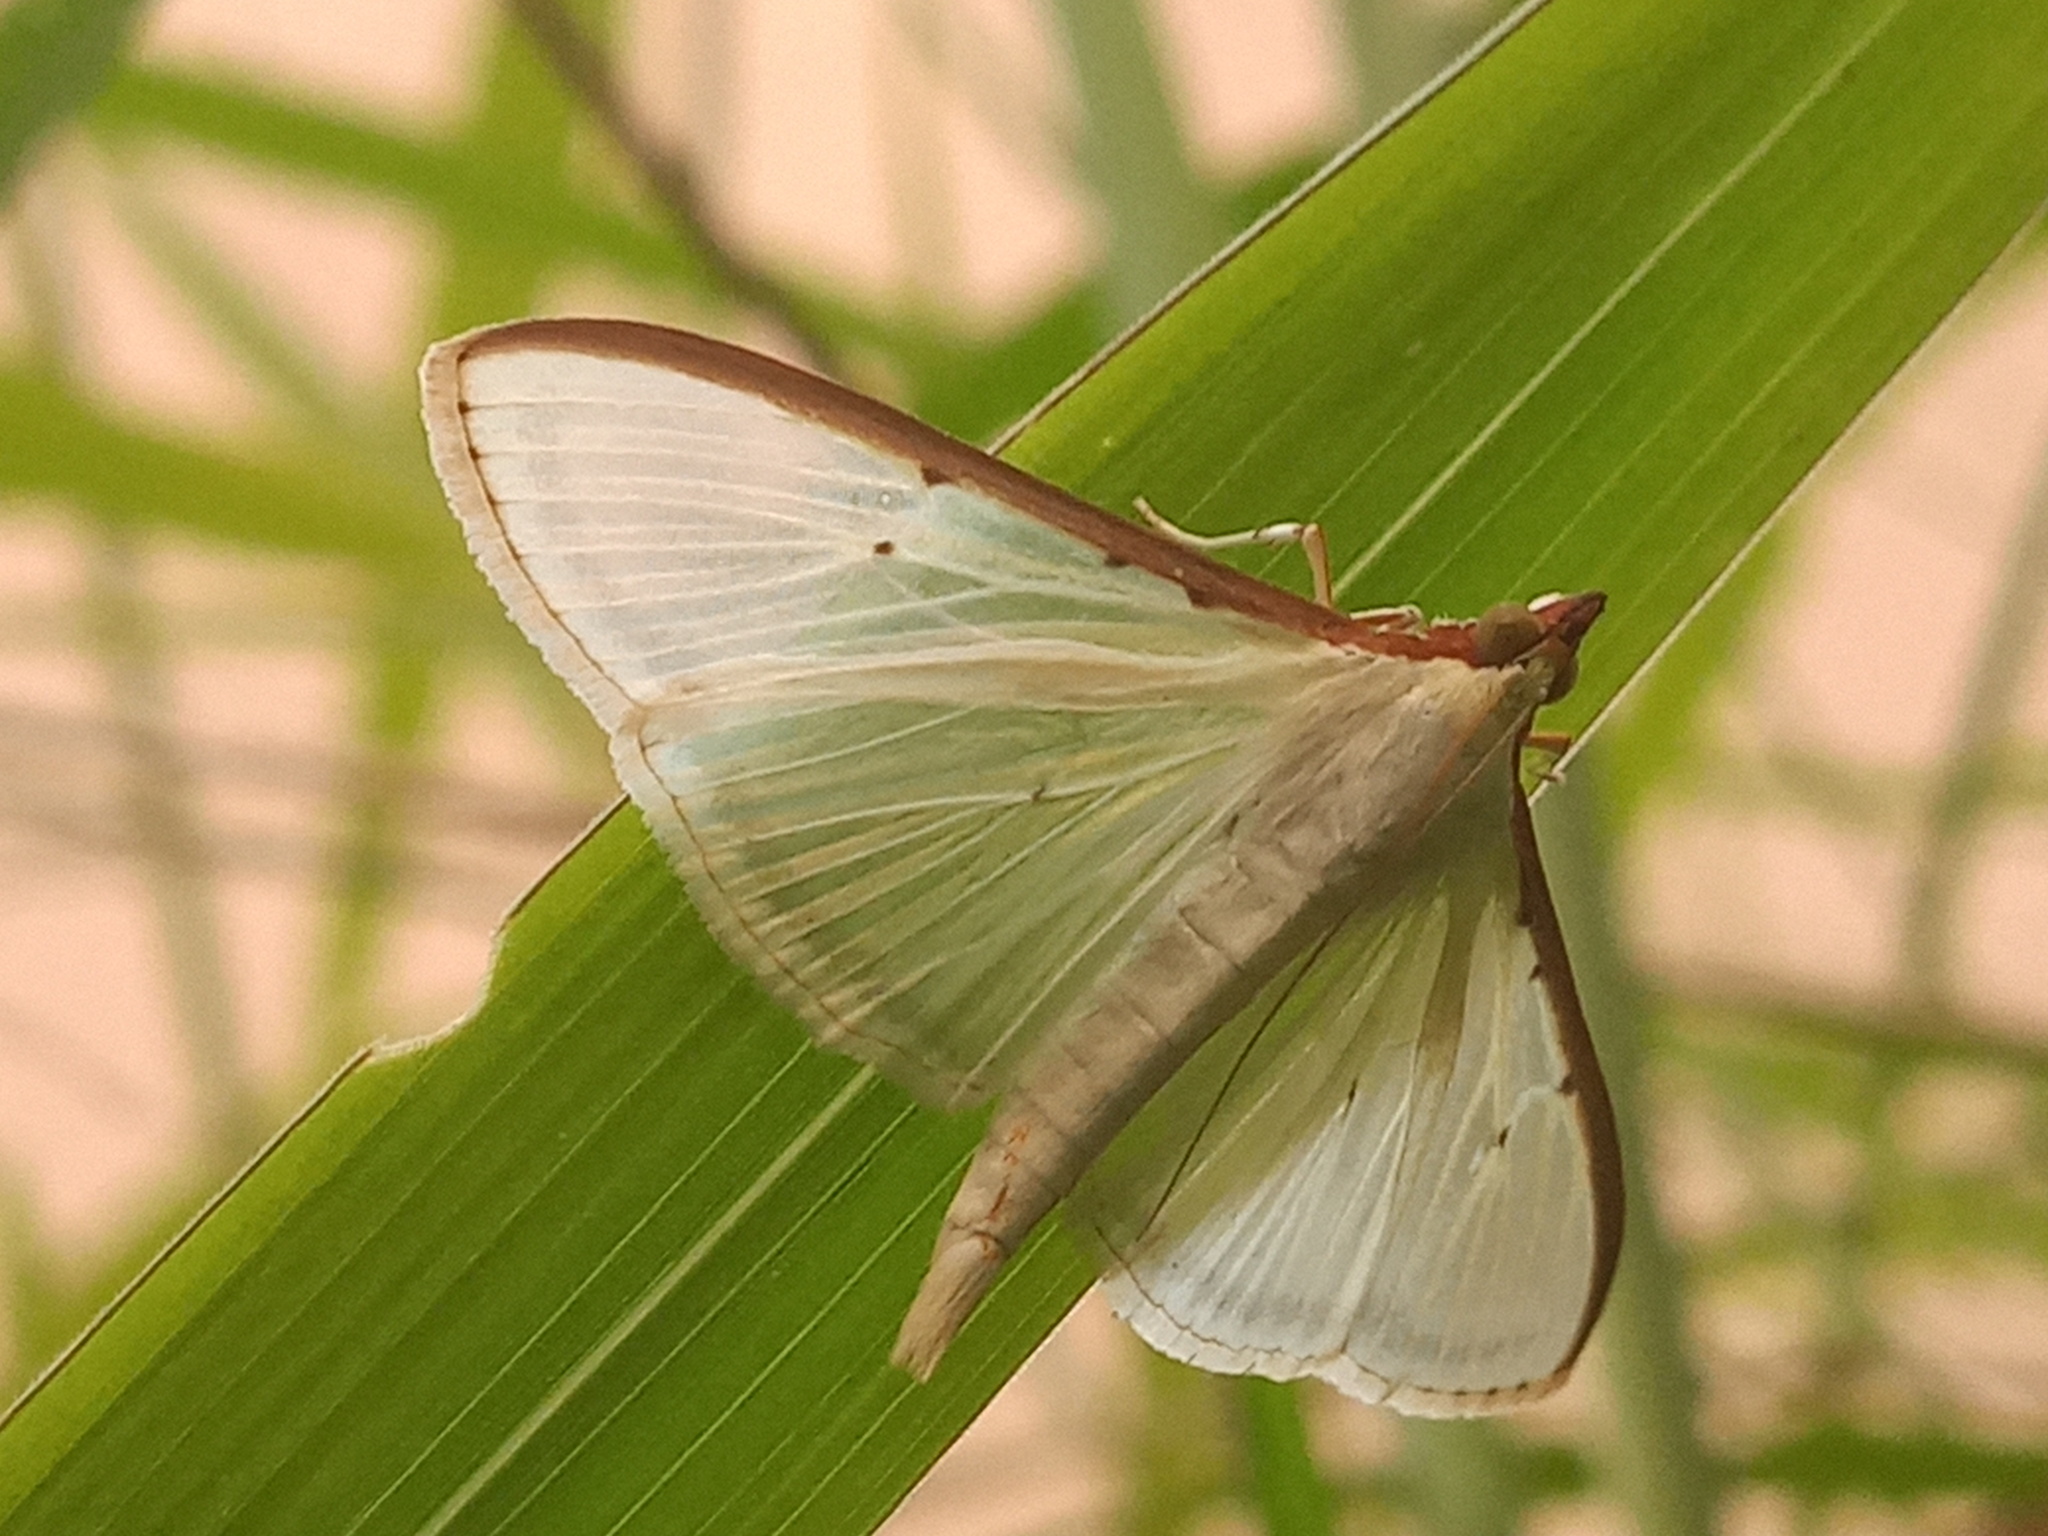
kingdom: Animalia
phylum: Arthropoda
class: Insecta
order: Lepidoptera
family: Crambidae
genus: Palpita
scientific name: Palpita quadristigmalis
